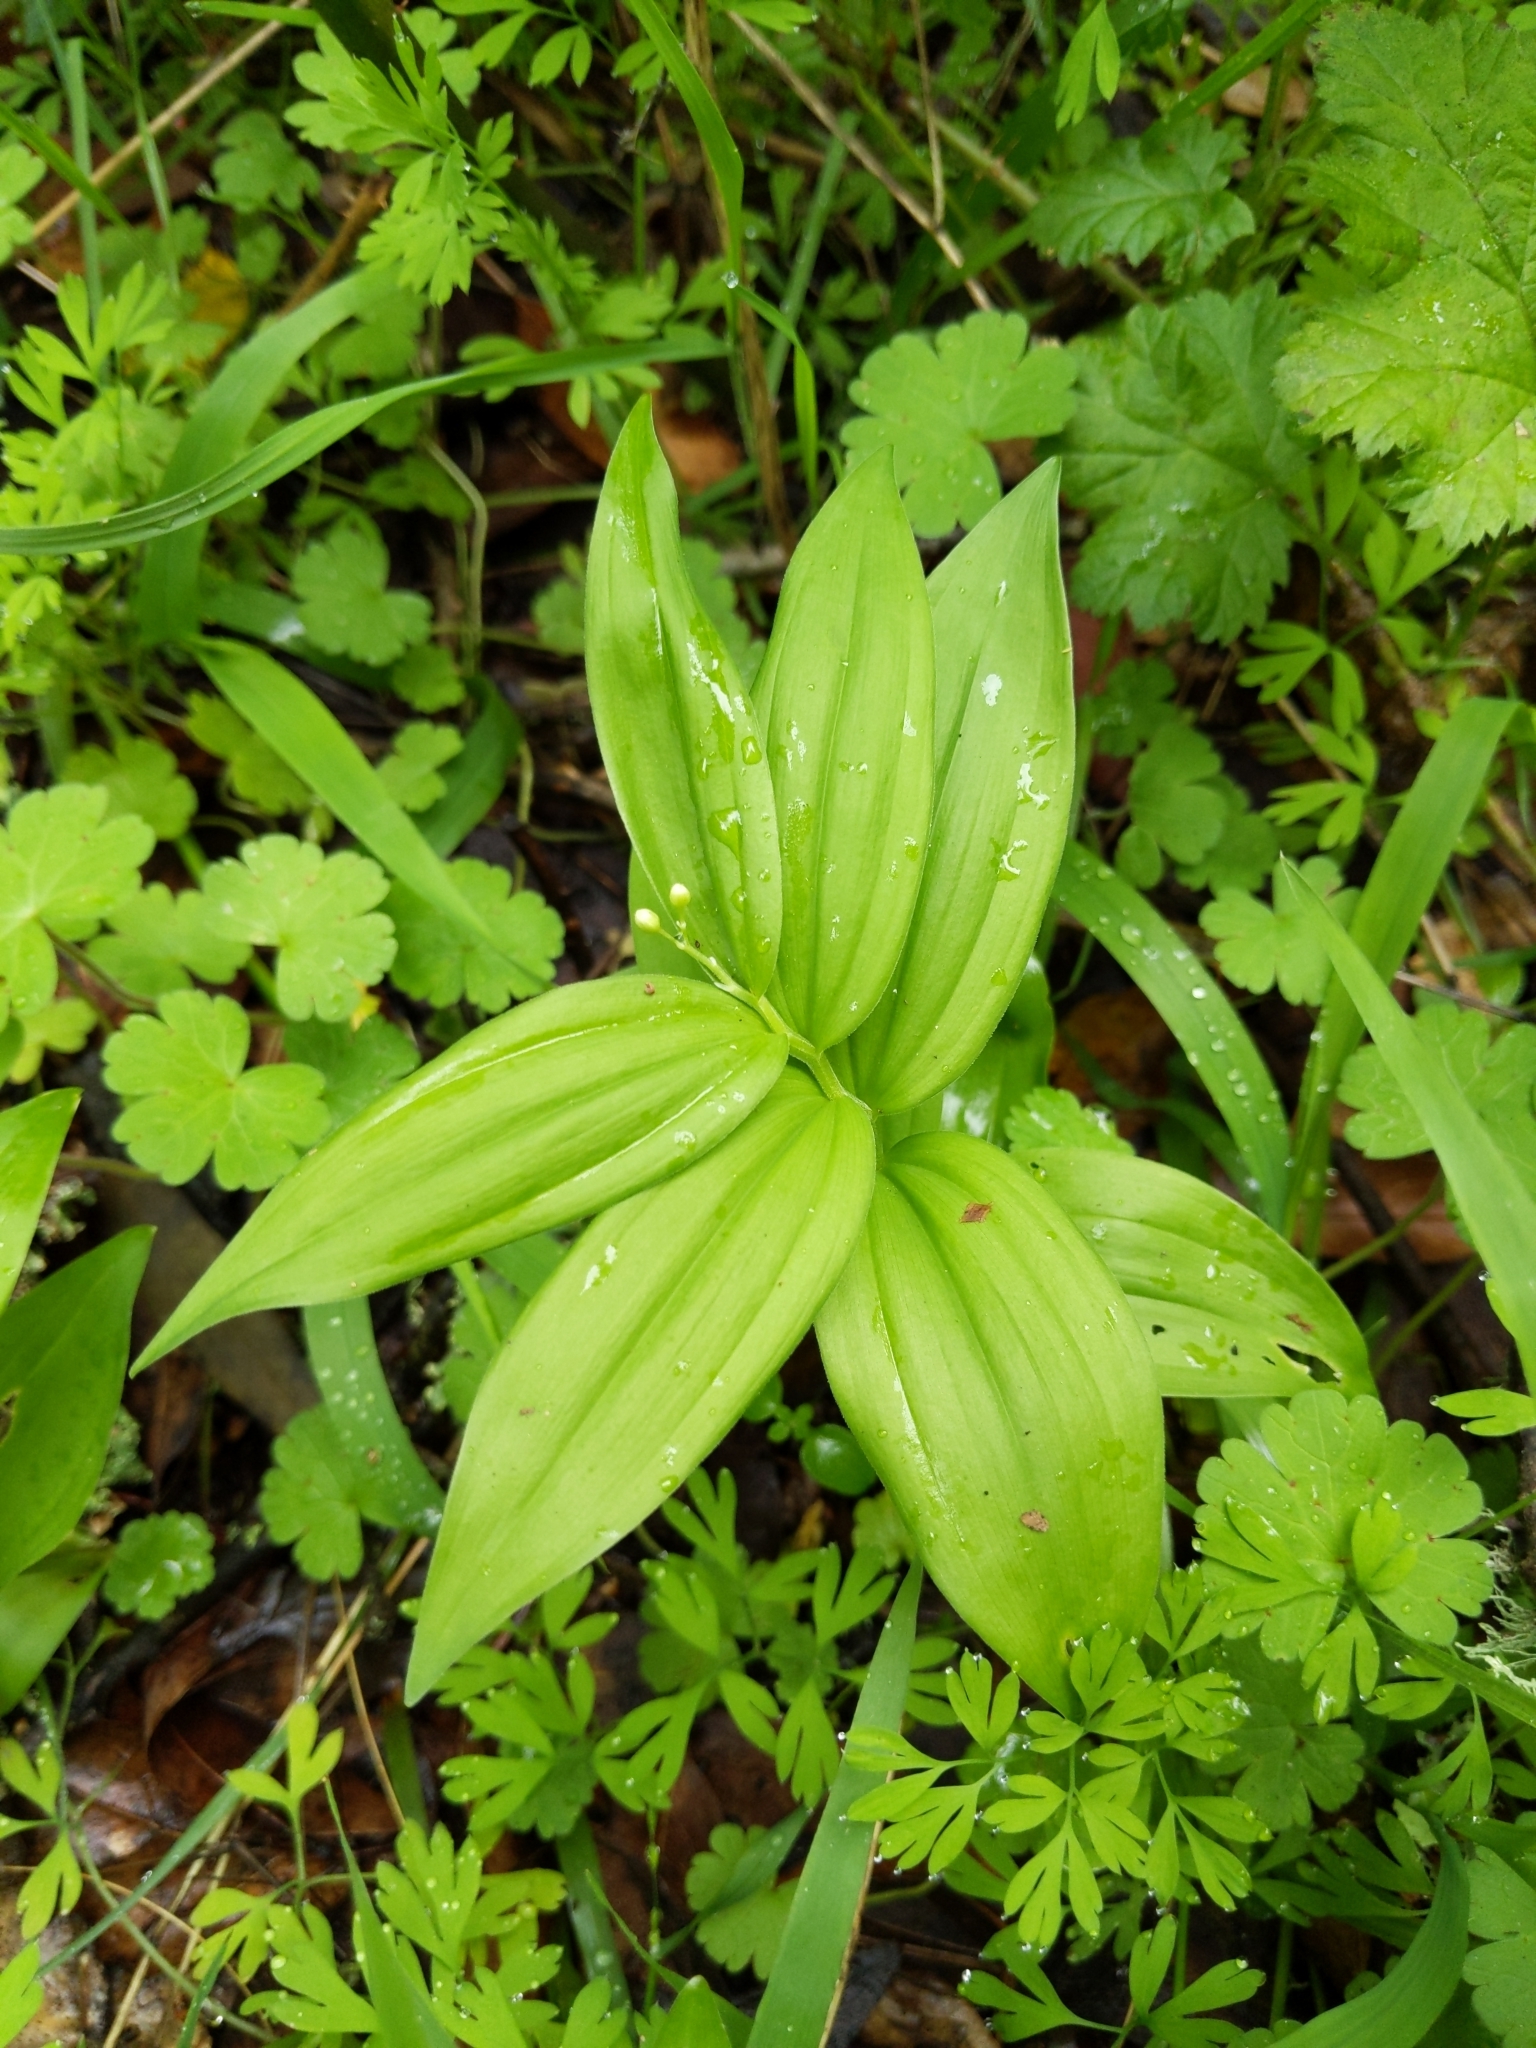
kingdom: Plantae
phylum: Tracheophyta
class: Liliopsida
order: Asparagales
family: Asparagaceae
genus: Maianthemum
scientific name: Maianthemum stellatum
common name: Little false solomon's seal
